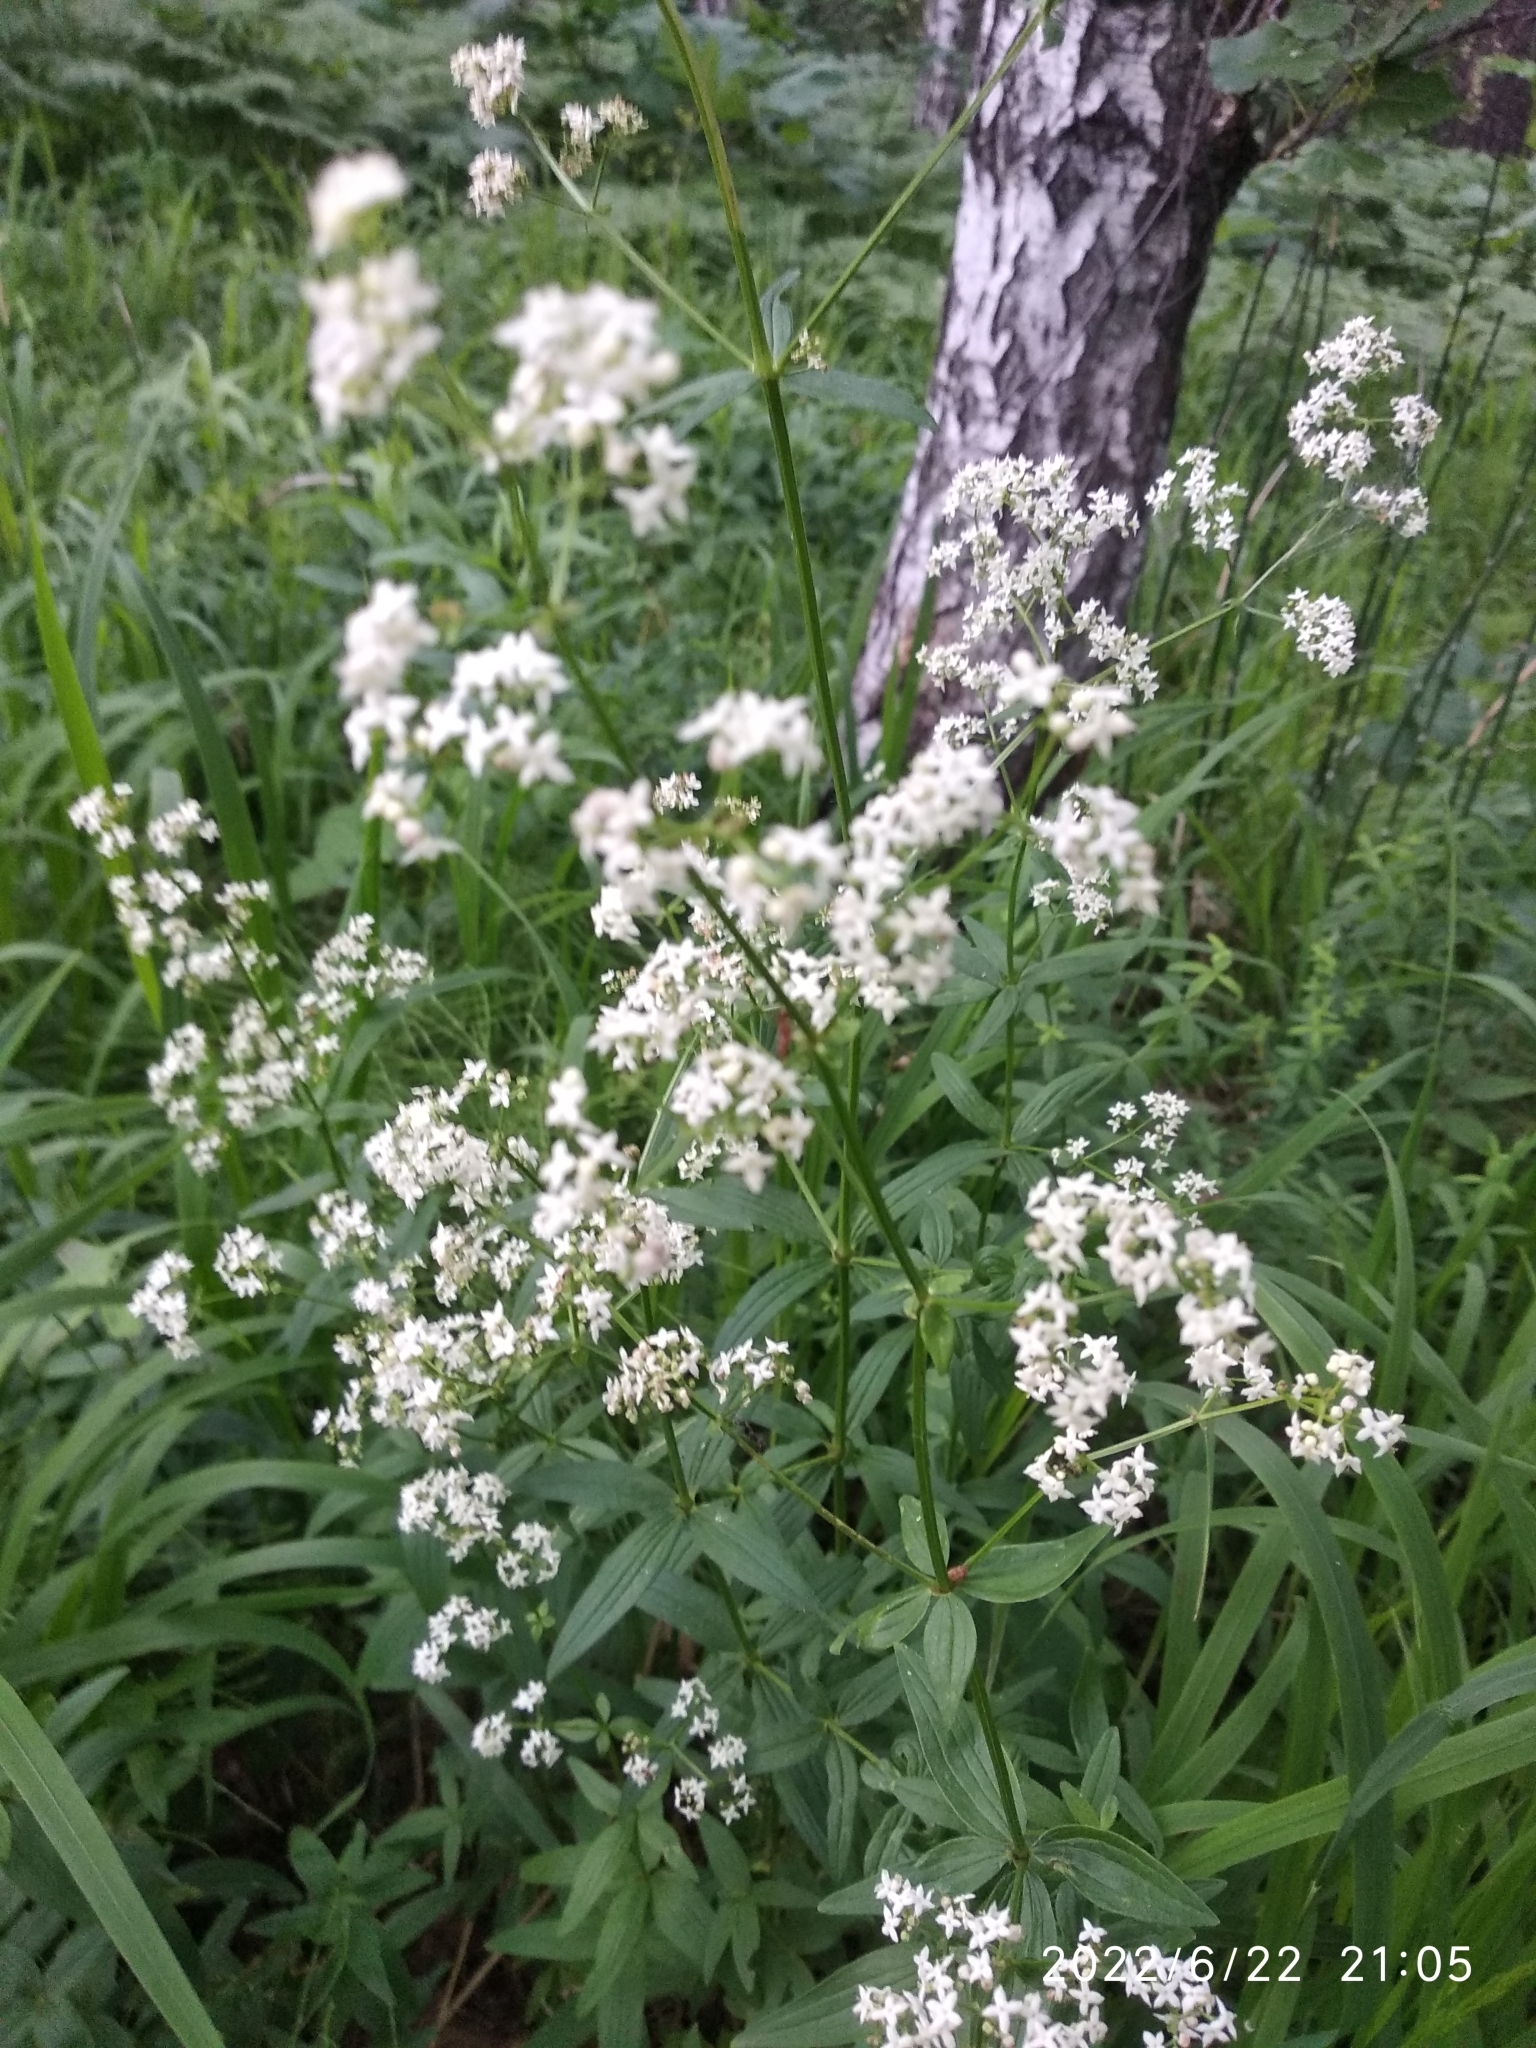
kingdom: Plantae
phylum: Tracheophyta
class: Magnoliopsida
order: Gentianales
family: Rubiaceae
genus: Galium
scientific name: Galium boreale
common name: Northern bedstraw
